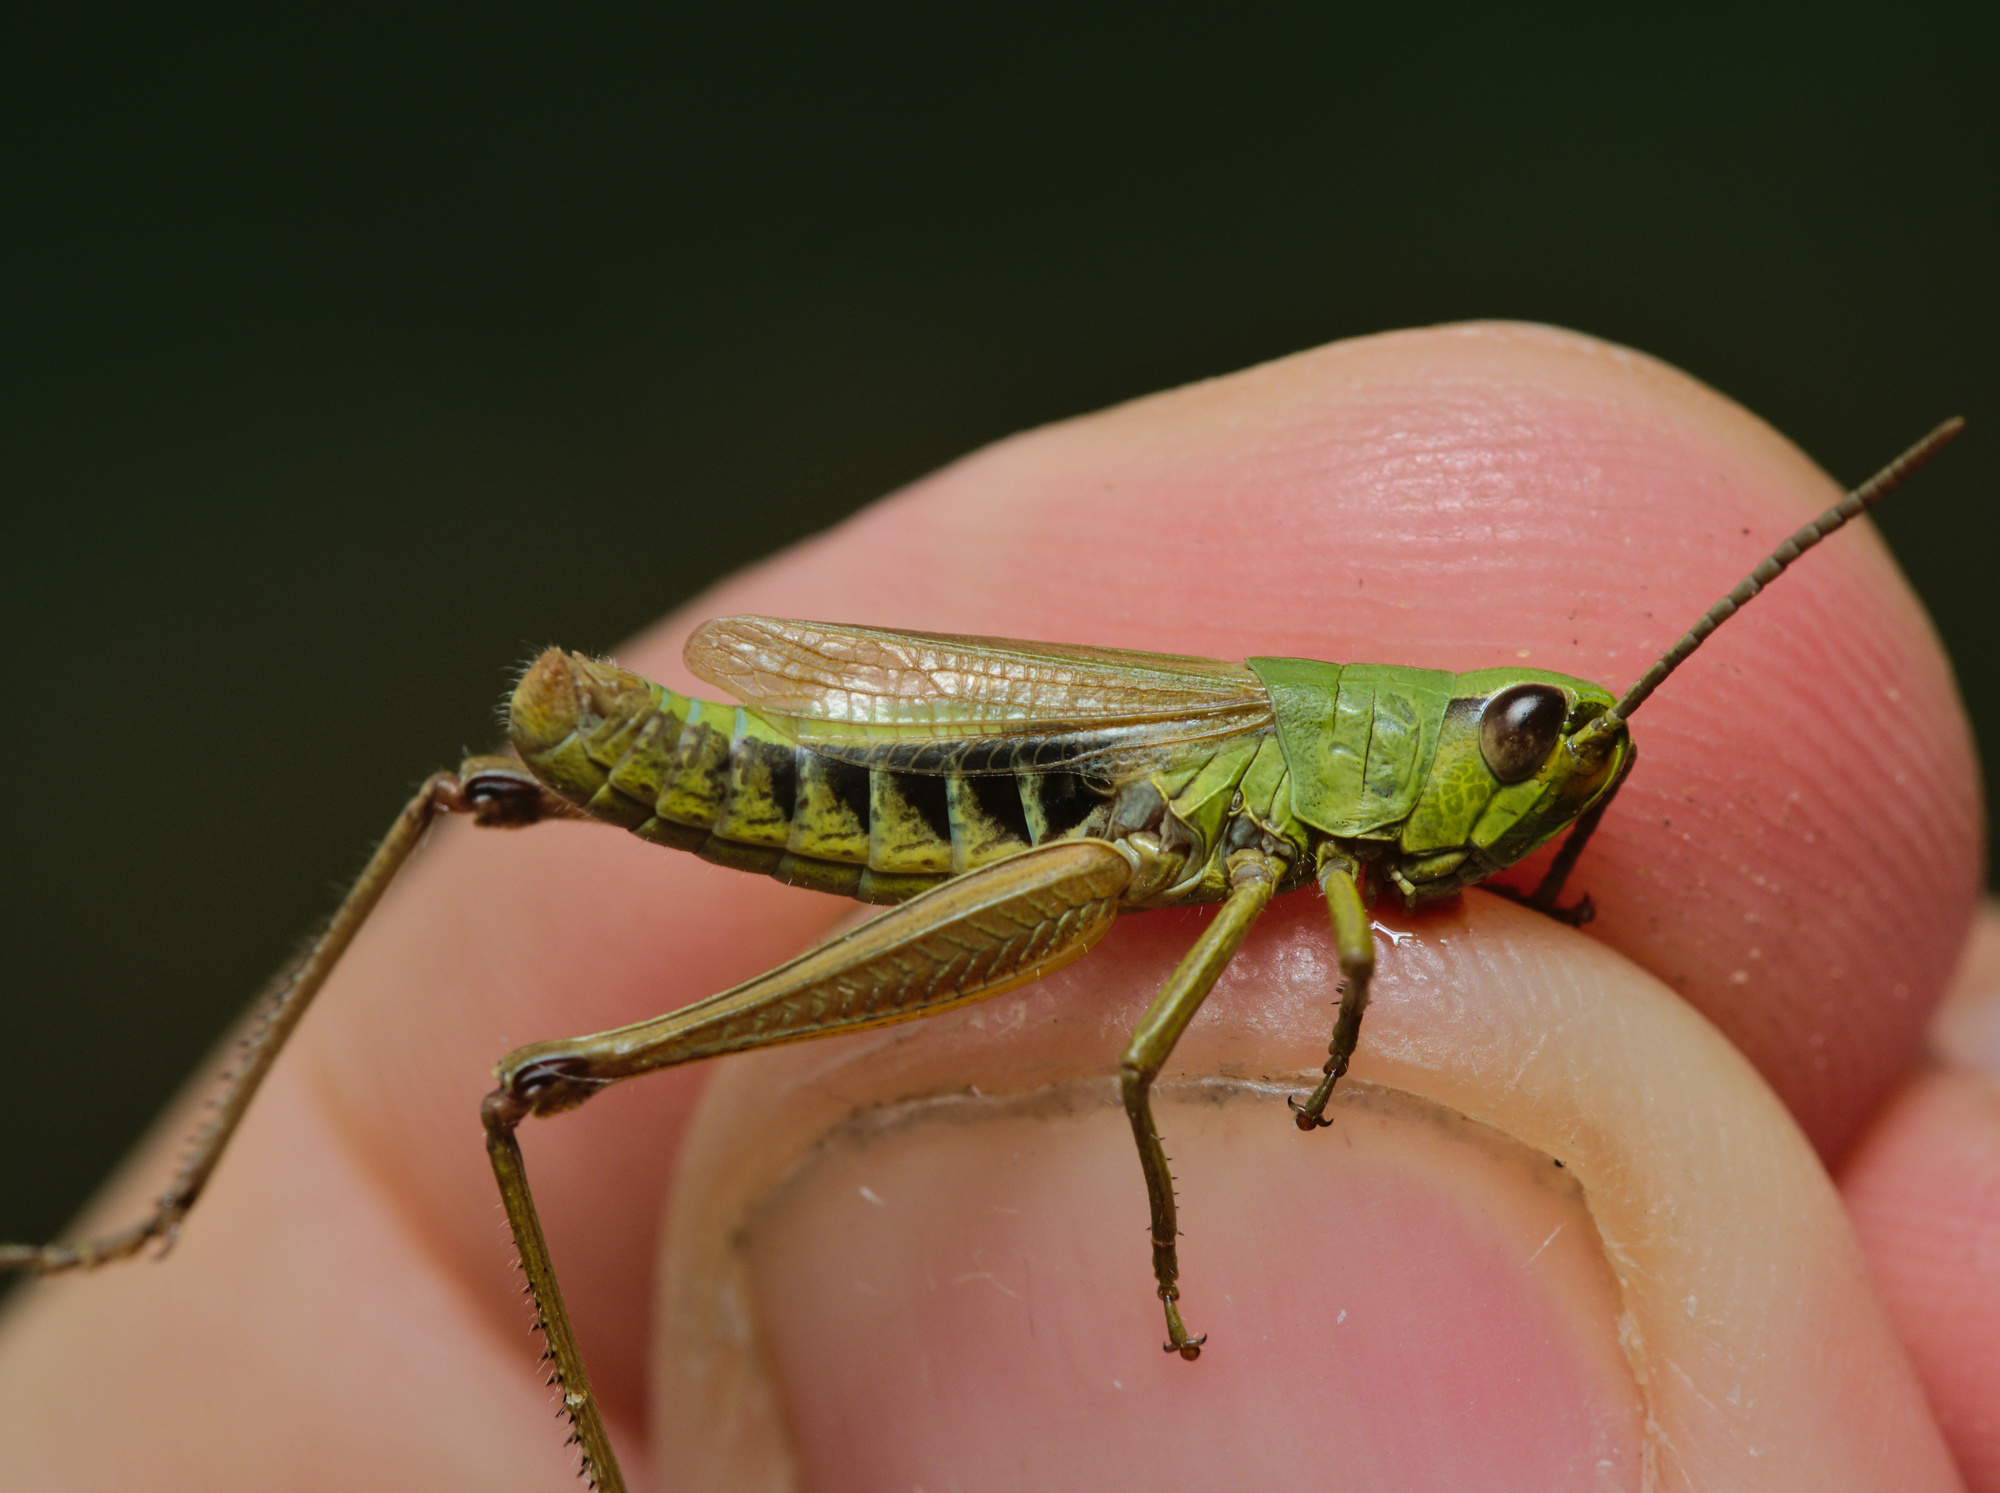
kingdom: Animalia
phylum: Arthropoda
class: Insecta
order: Orthoptera
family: Acrididae
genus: Pseudochorthippus
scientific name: Pseudochorthippus parallelus
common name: Meadow grasshopper
